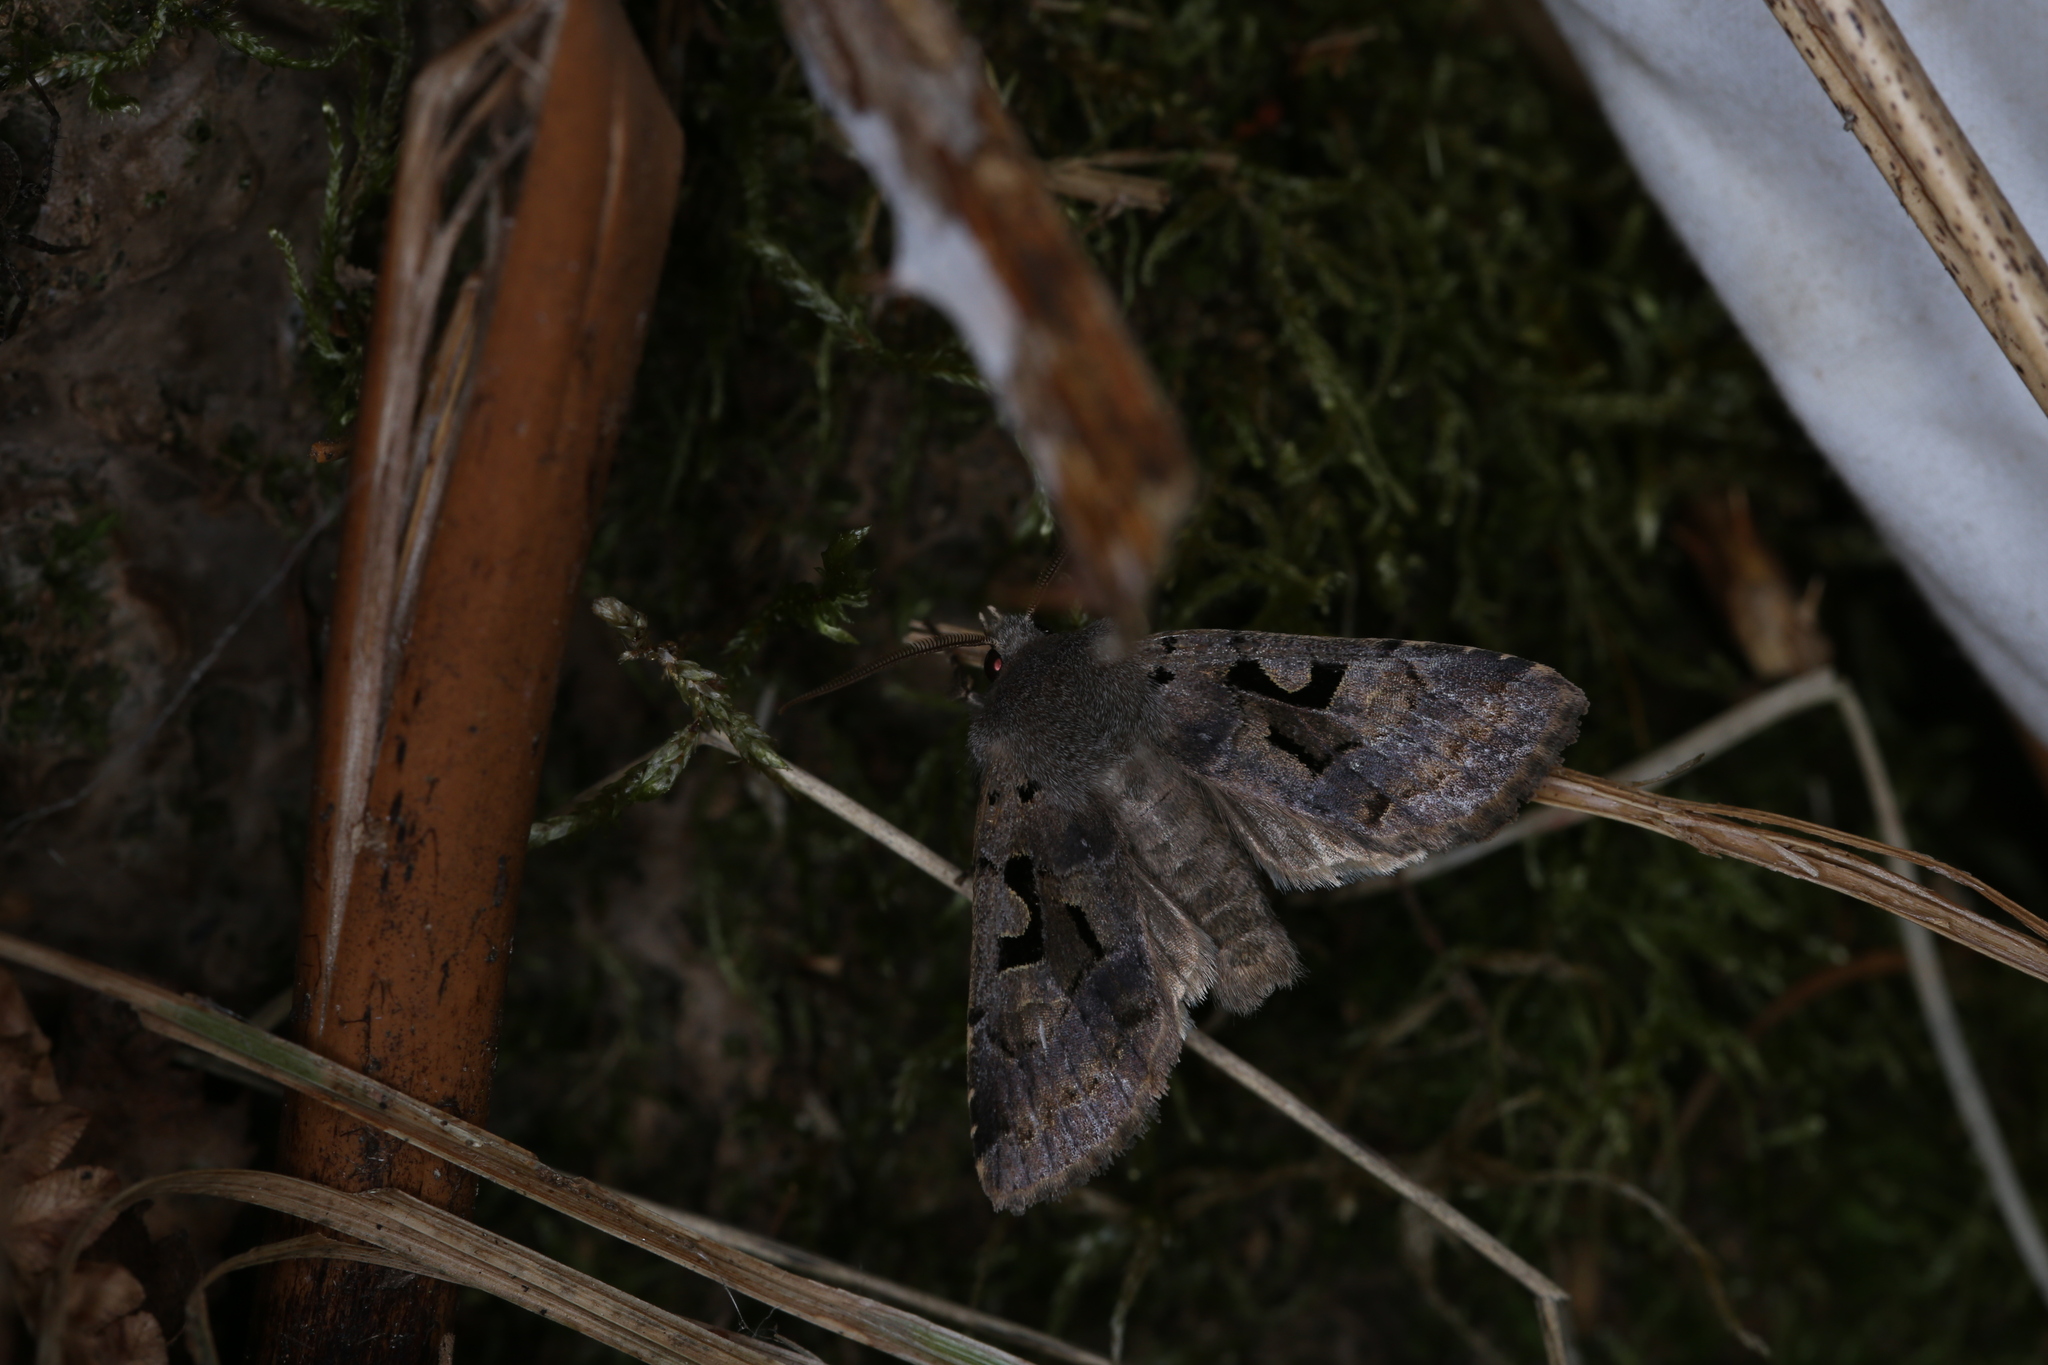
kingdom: Animalia
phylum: Arthropoda
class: Insecta
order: Lepidoptera
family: Noctuidae
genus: Orthosia
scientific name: Orthosia gothica
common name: Hebrew character
